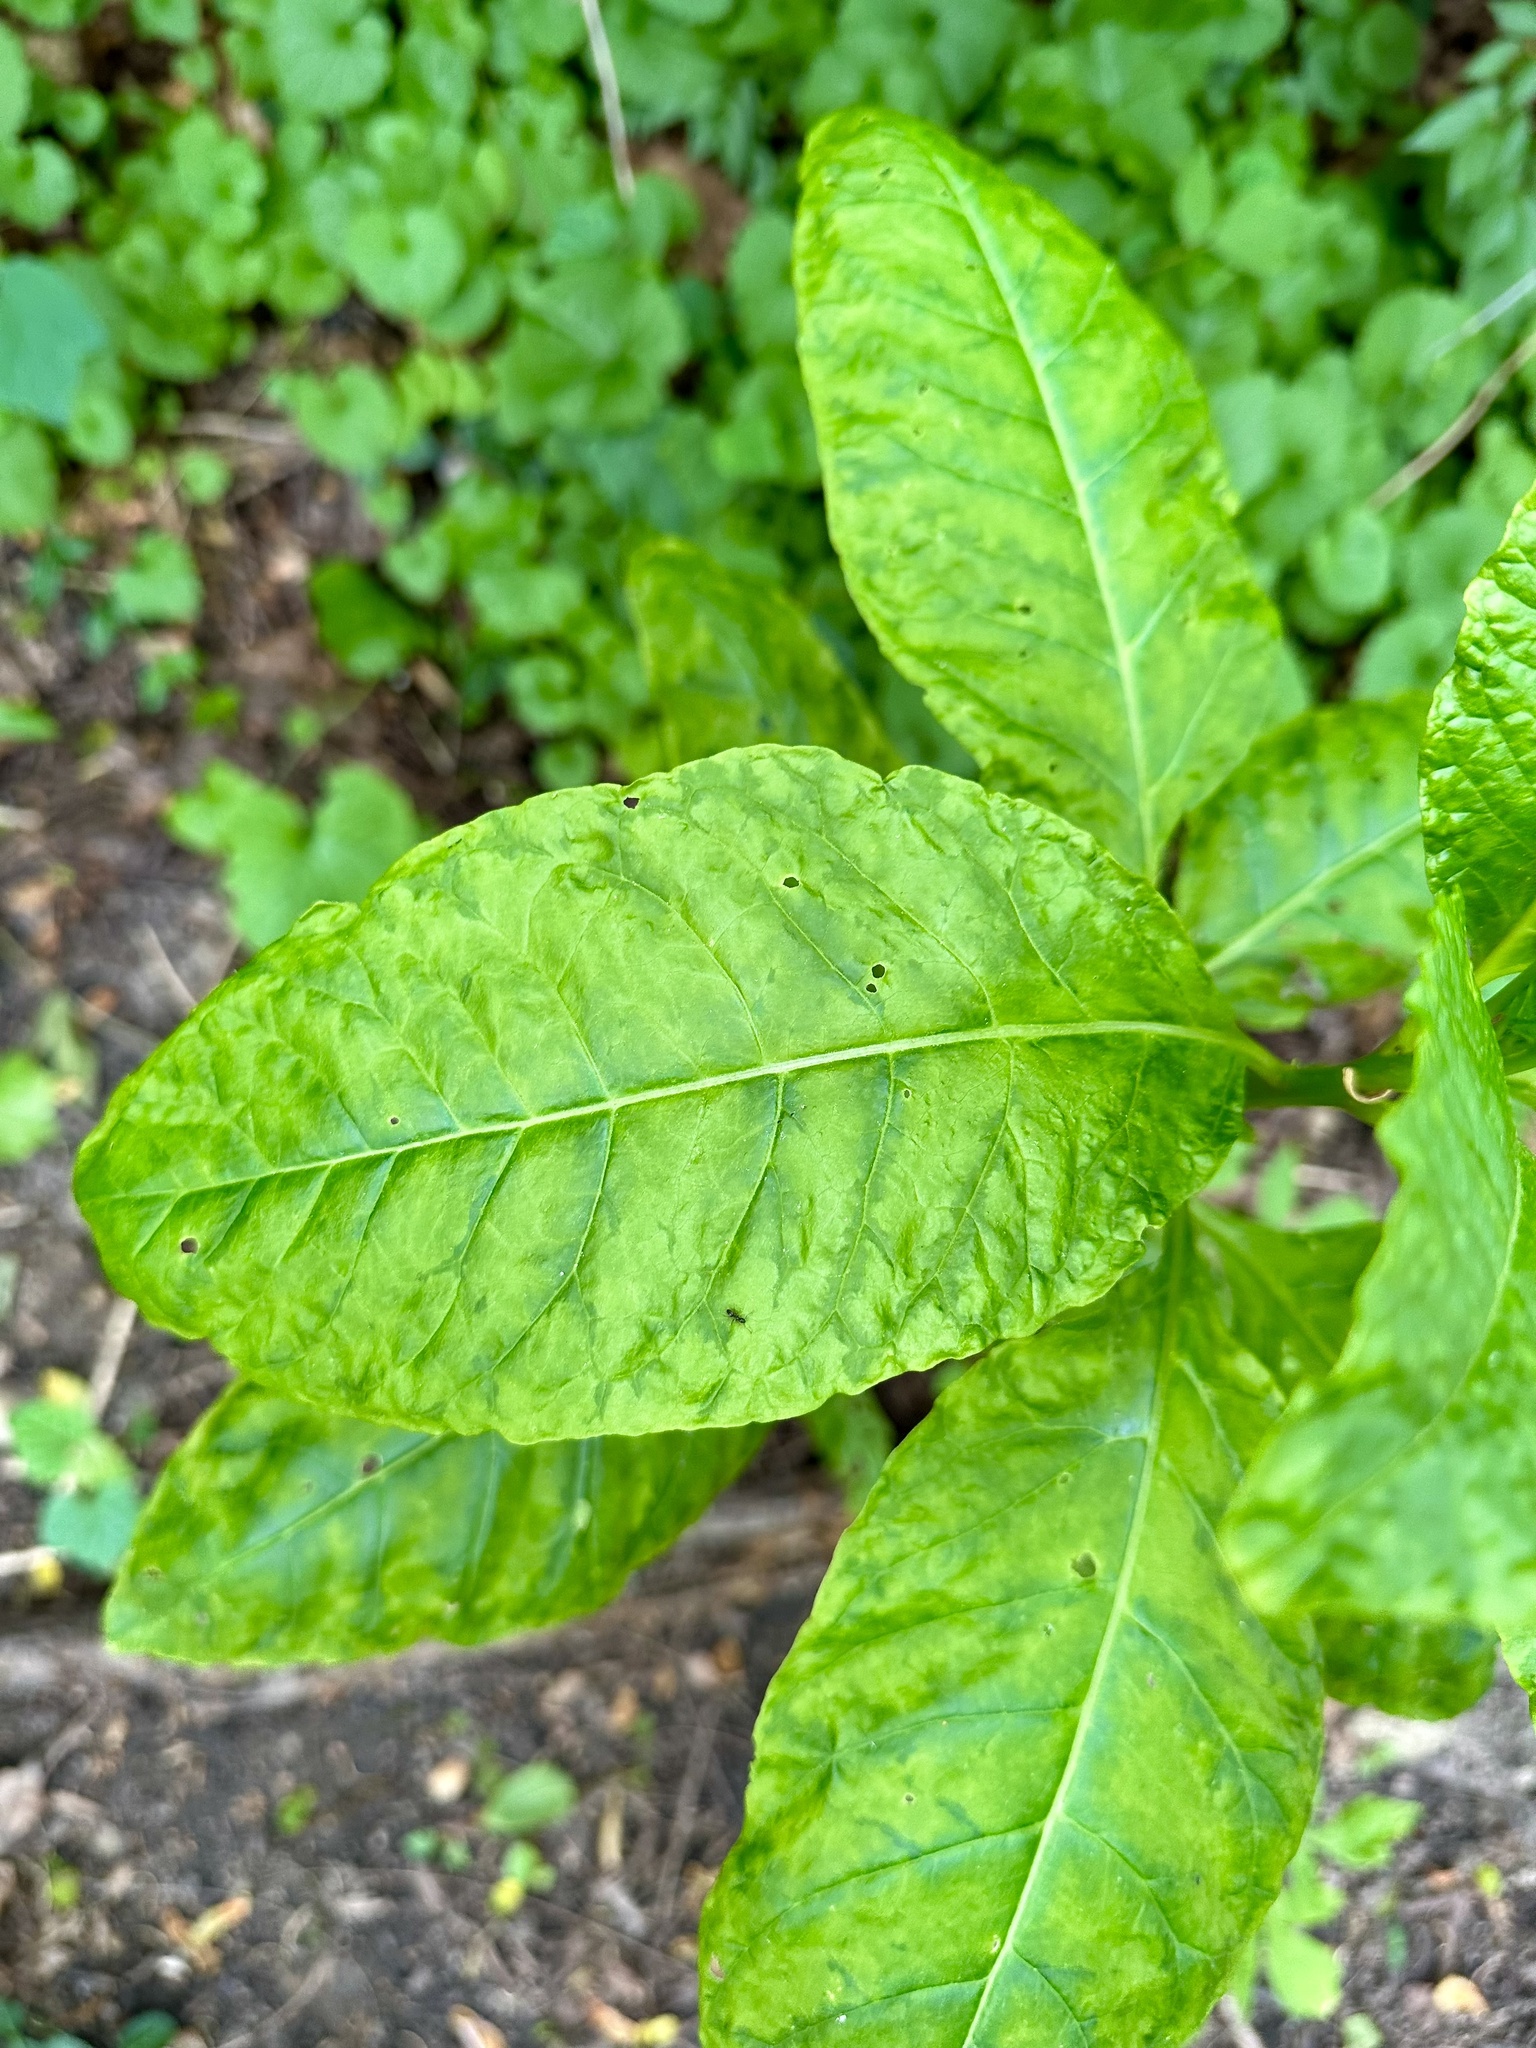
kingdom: Viruses
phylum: Pisuviricota
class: Stelpaviricetes
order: Patatavirales
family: Potyviridae
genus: Potyvirus
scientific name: Potyvirus Pokeweed mosaic virus
